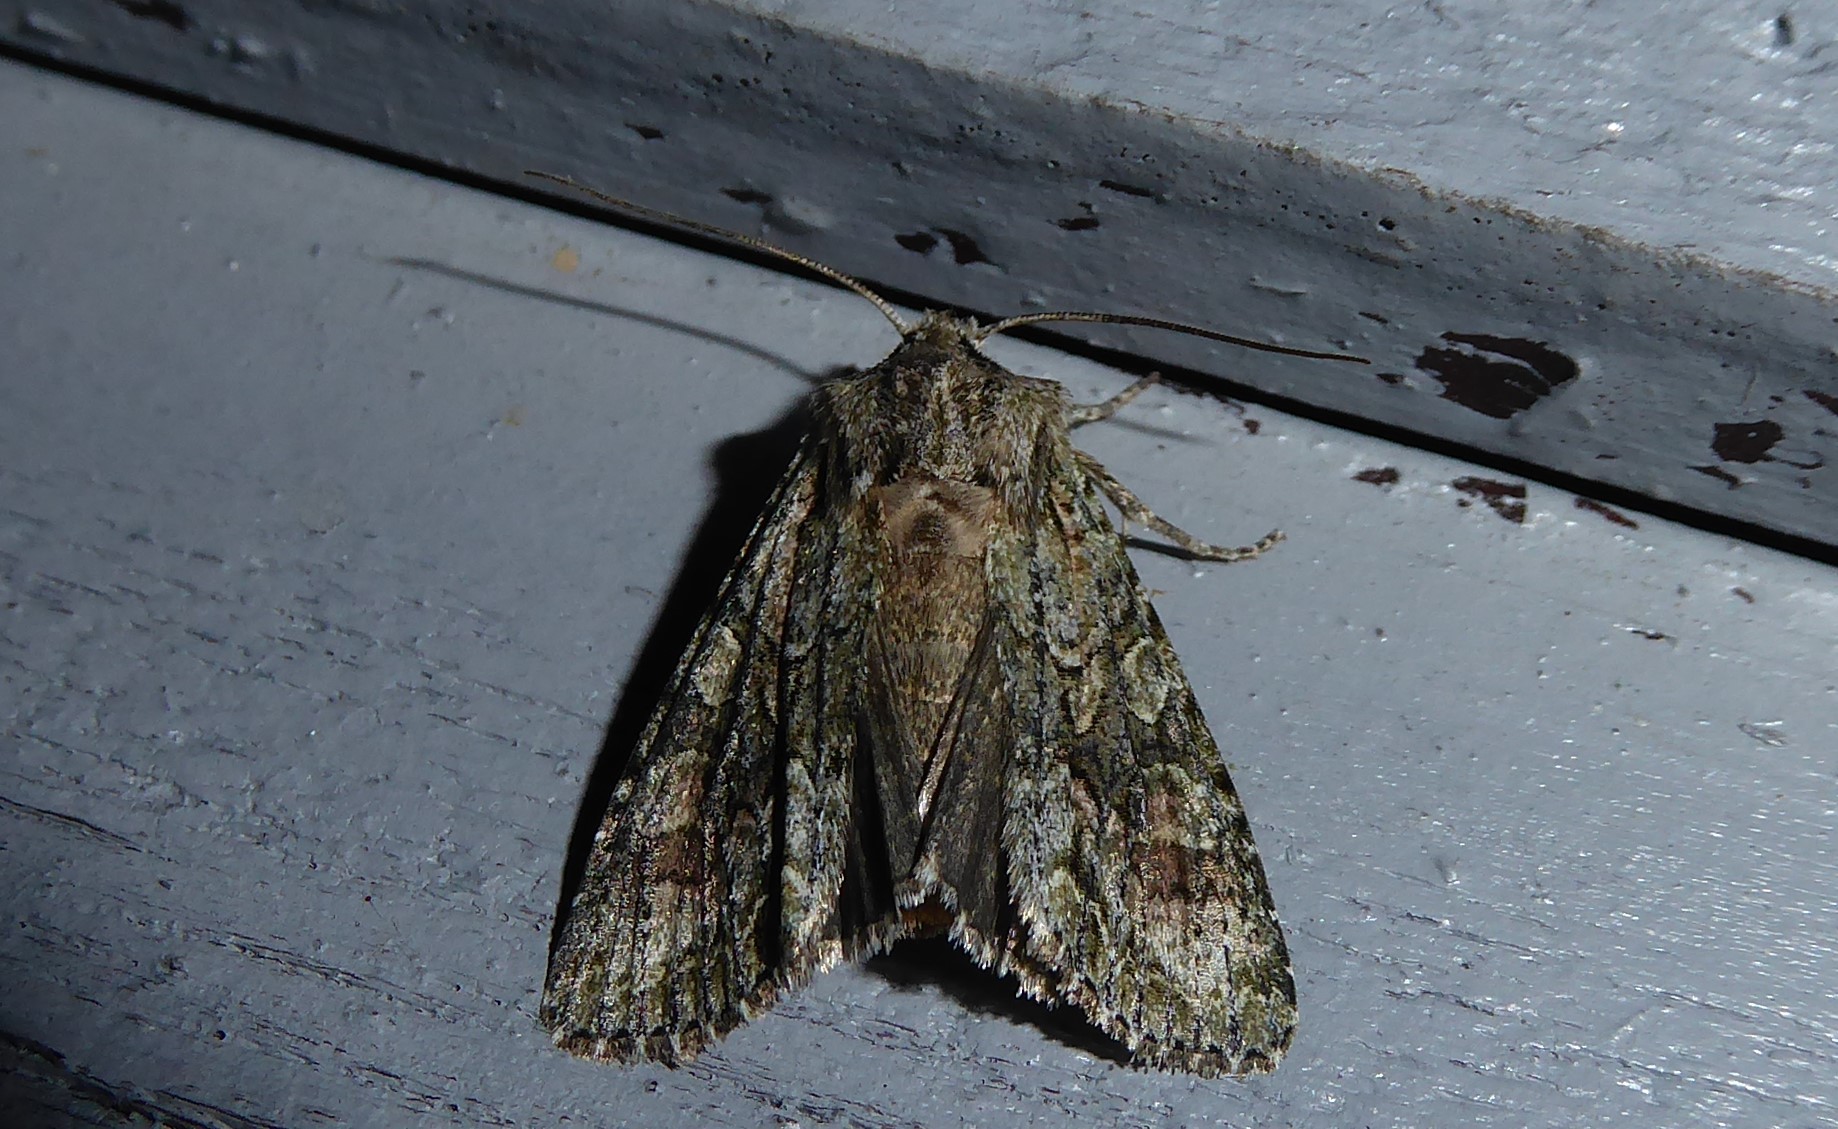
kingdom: Animalia
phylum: Arthropoda
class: Insecta
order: Lepidoptera
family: Noctuidae
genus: Ichneutica
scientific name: Ichneutica mutans
